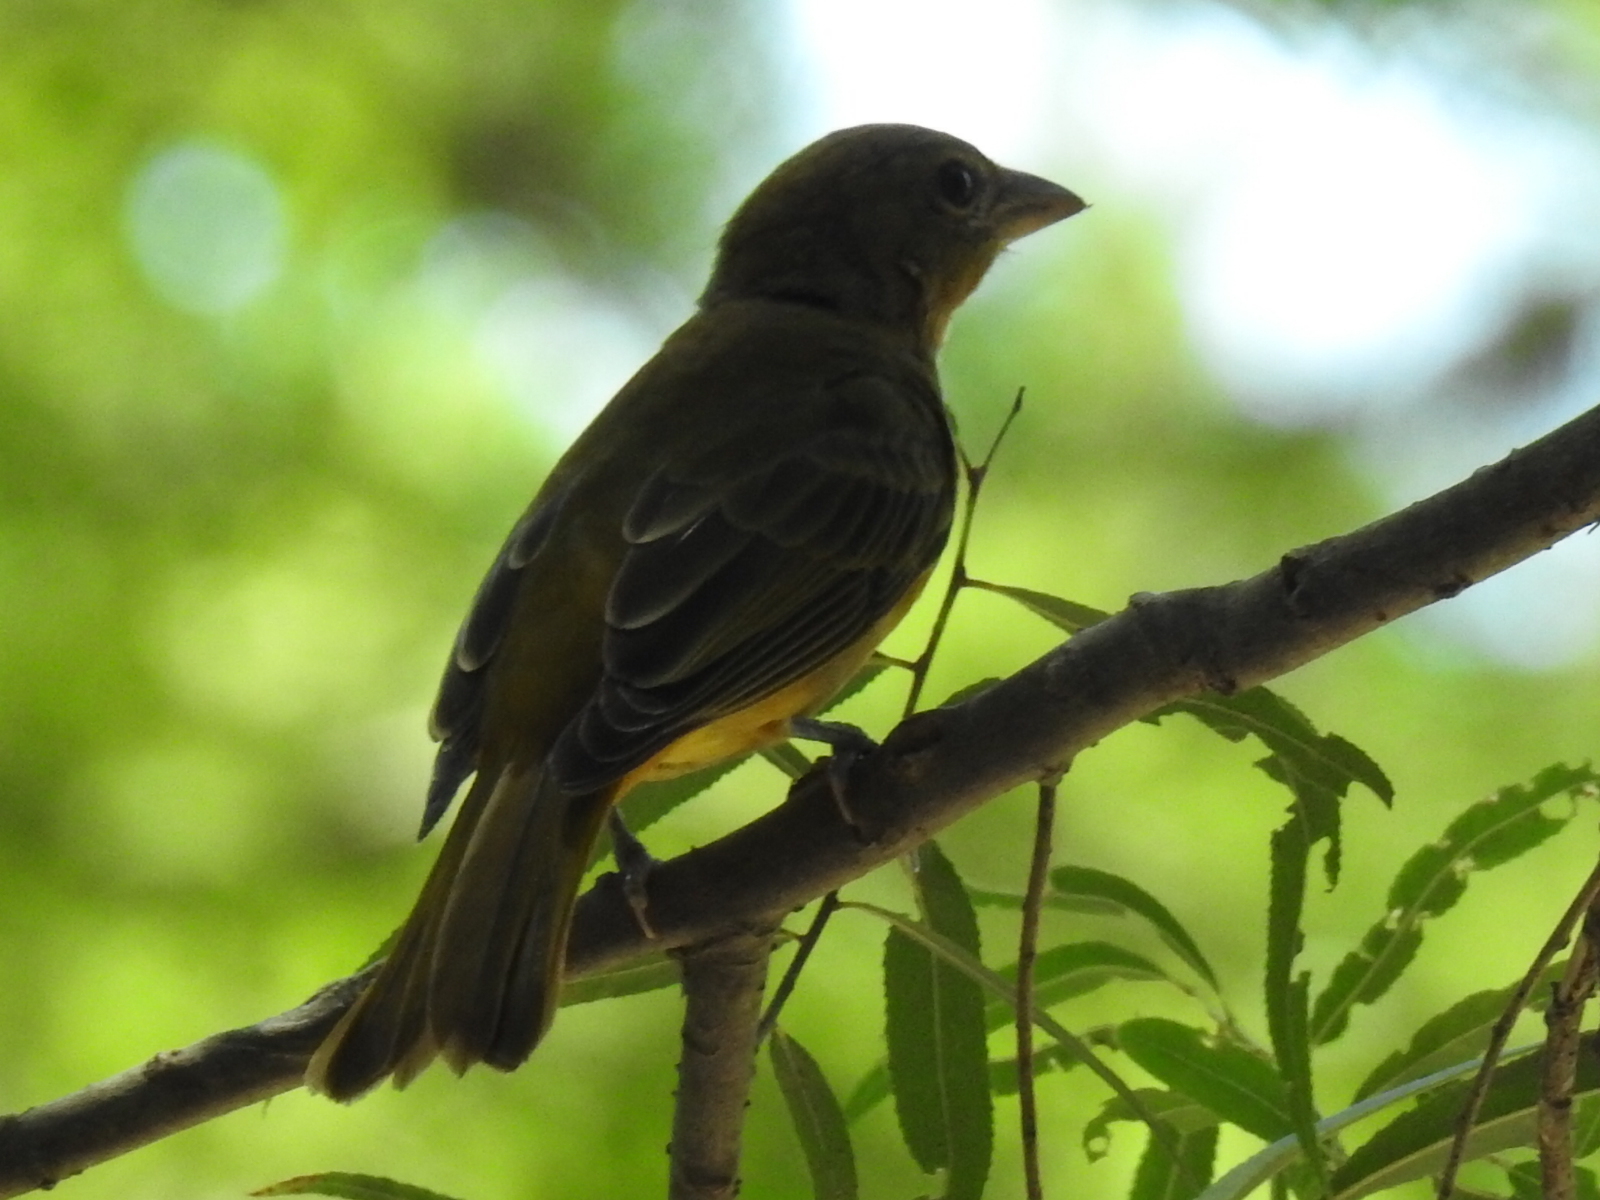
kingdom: Animalia
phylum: Chordata
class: Aves
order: Passeriformes
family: Cardinalidae
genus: Piranga
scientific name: Piranga rubra
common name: Summer tanager
